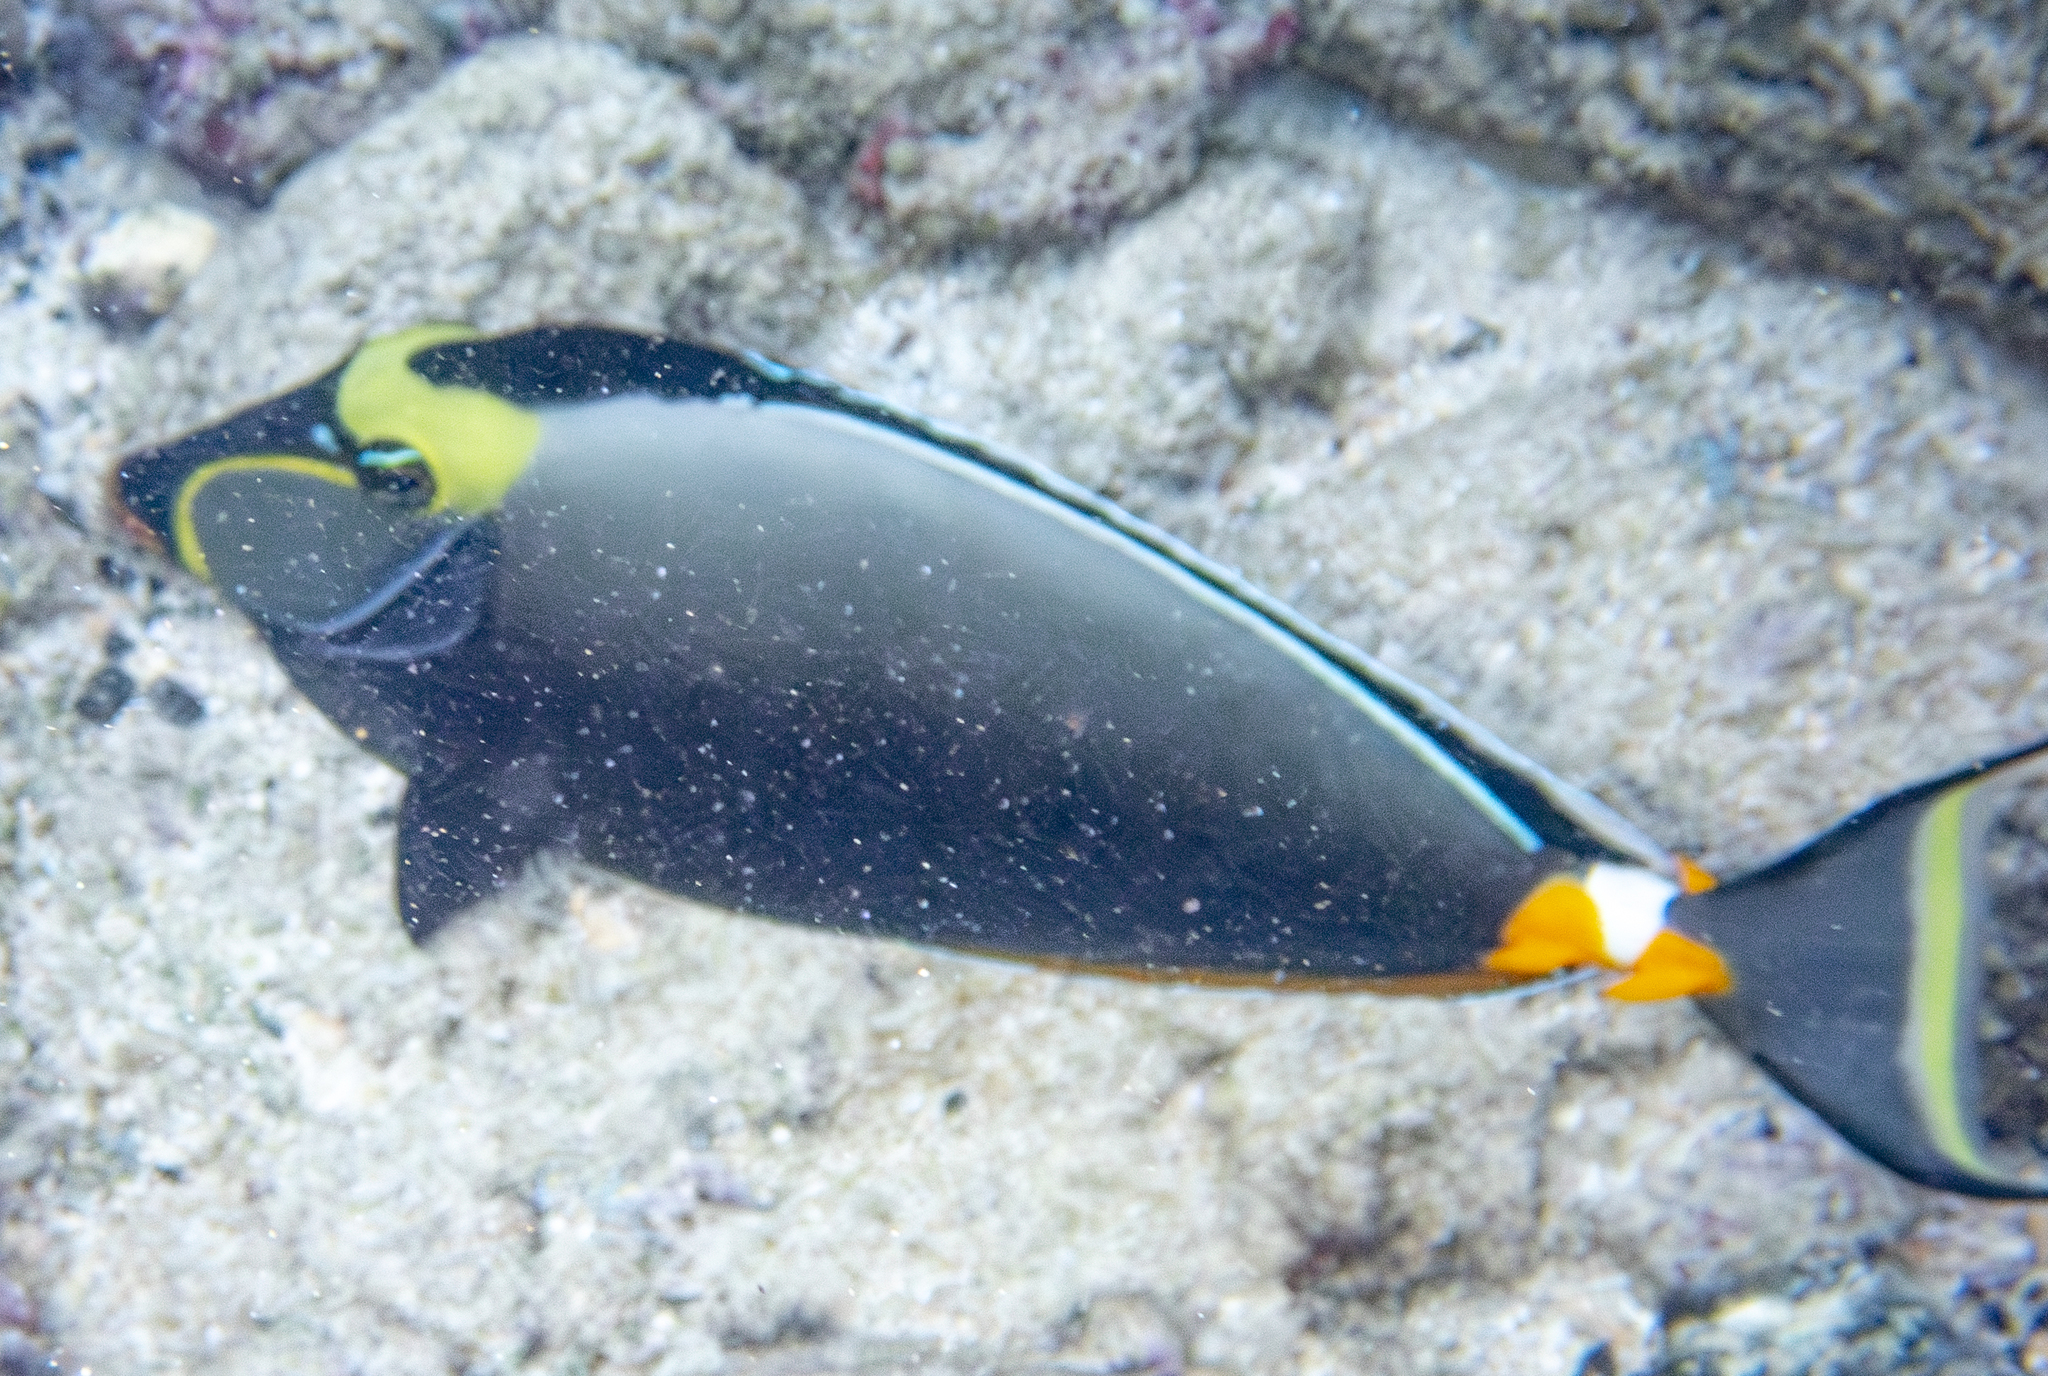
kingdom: Animalia
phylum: Chordata
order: Perciformes
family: Acanthuridae
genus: Naso
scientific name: Naso lituratus
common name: Orangespine unicornfish
